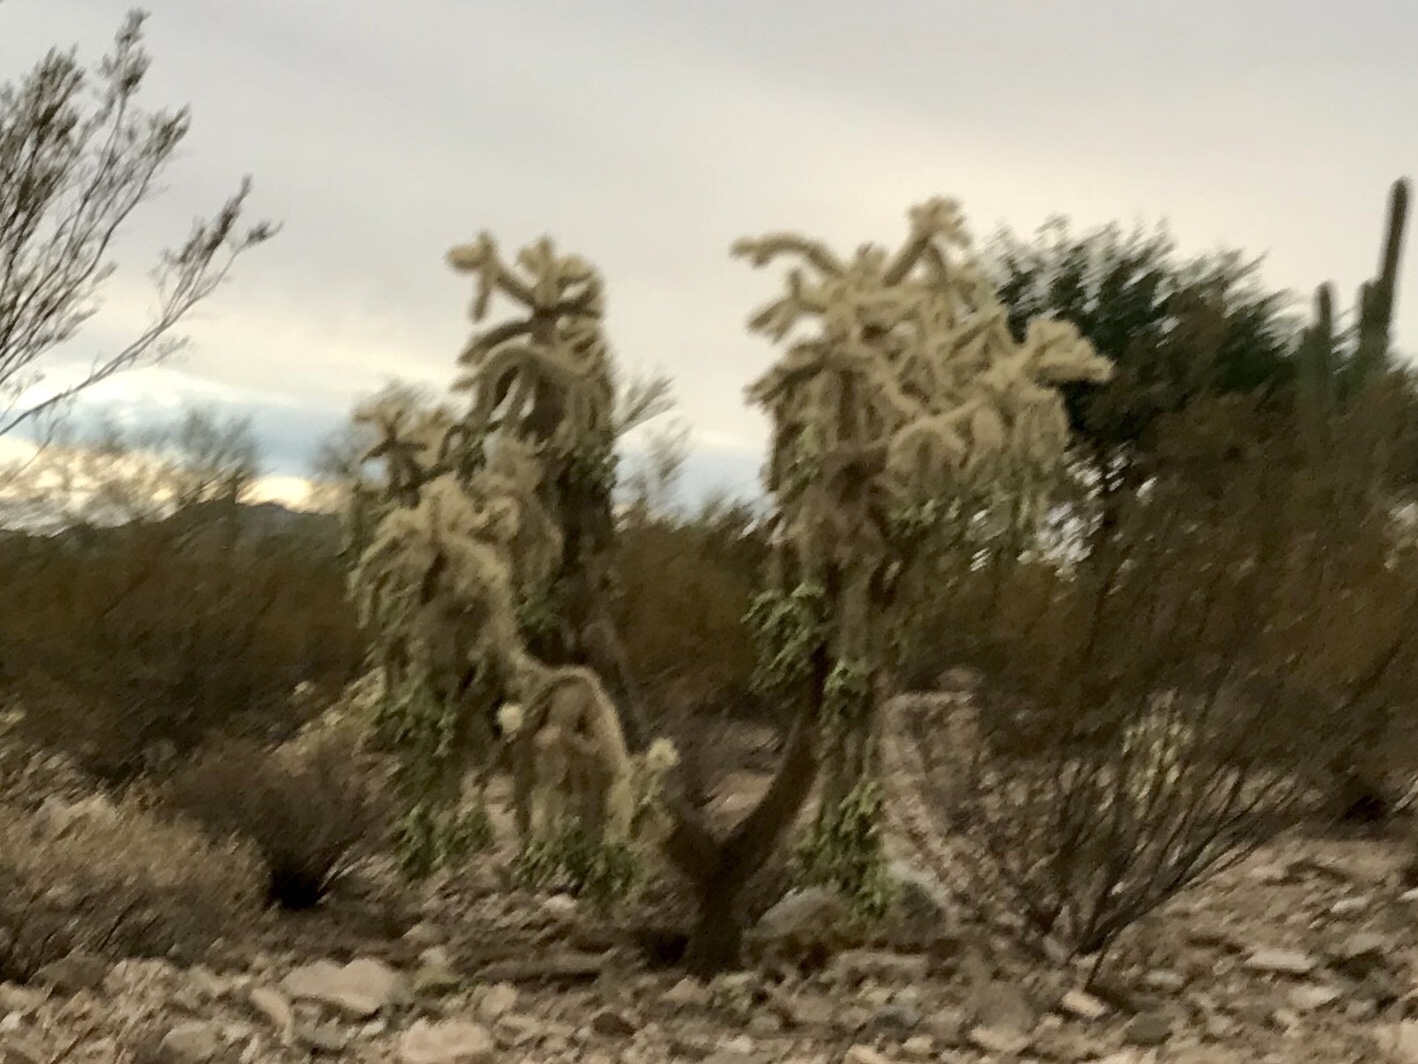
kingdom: Plantae
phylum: Tracheophyta
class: Magnoliopsida
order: Caryophyllales
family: Cactaceae
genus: Cylindropuntia
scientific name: Cylindropuntia fulgida
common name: Jumping cholla
